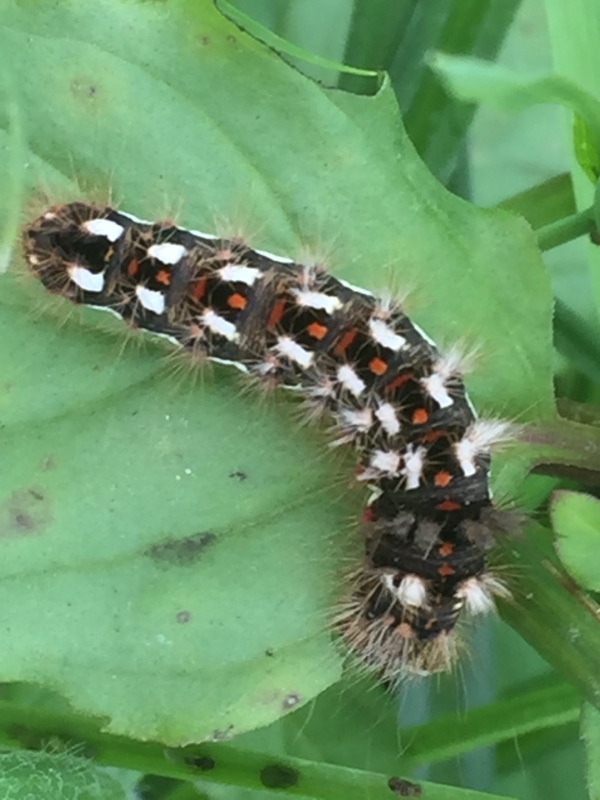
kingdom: Animalia
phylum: Arthropoda
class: Insecta
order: Lepidoptera
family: Noctuidae
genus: Acronicta
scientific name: Acronicta rumicis
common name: Knot grass
